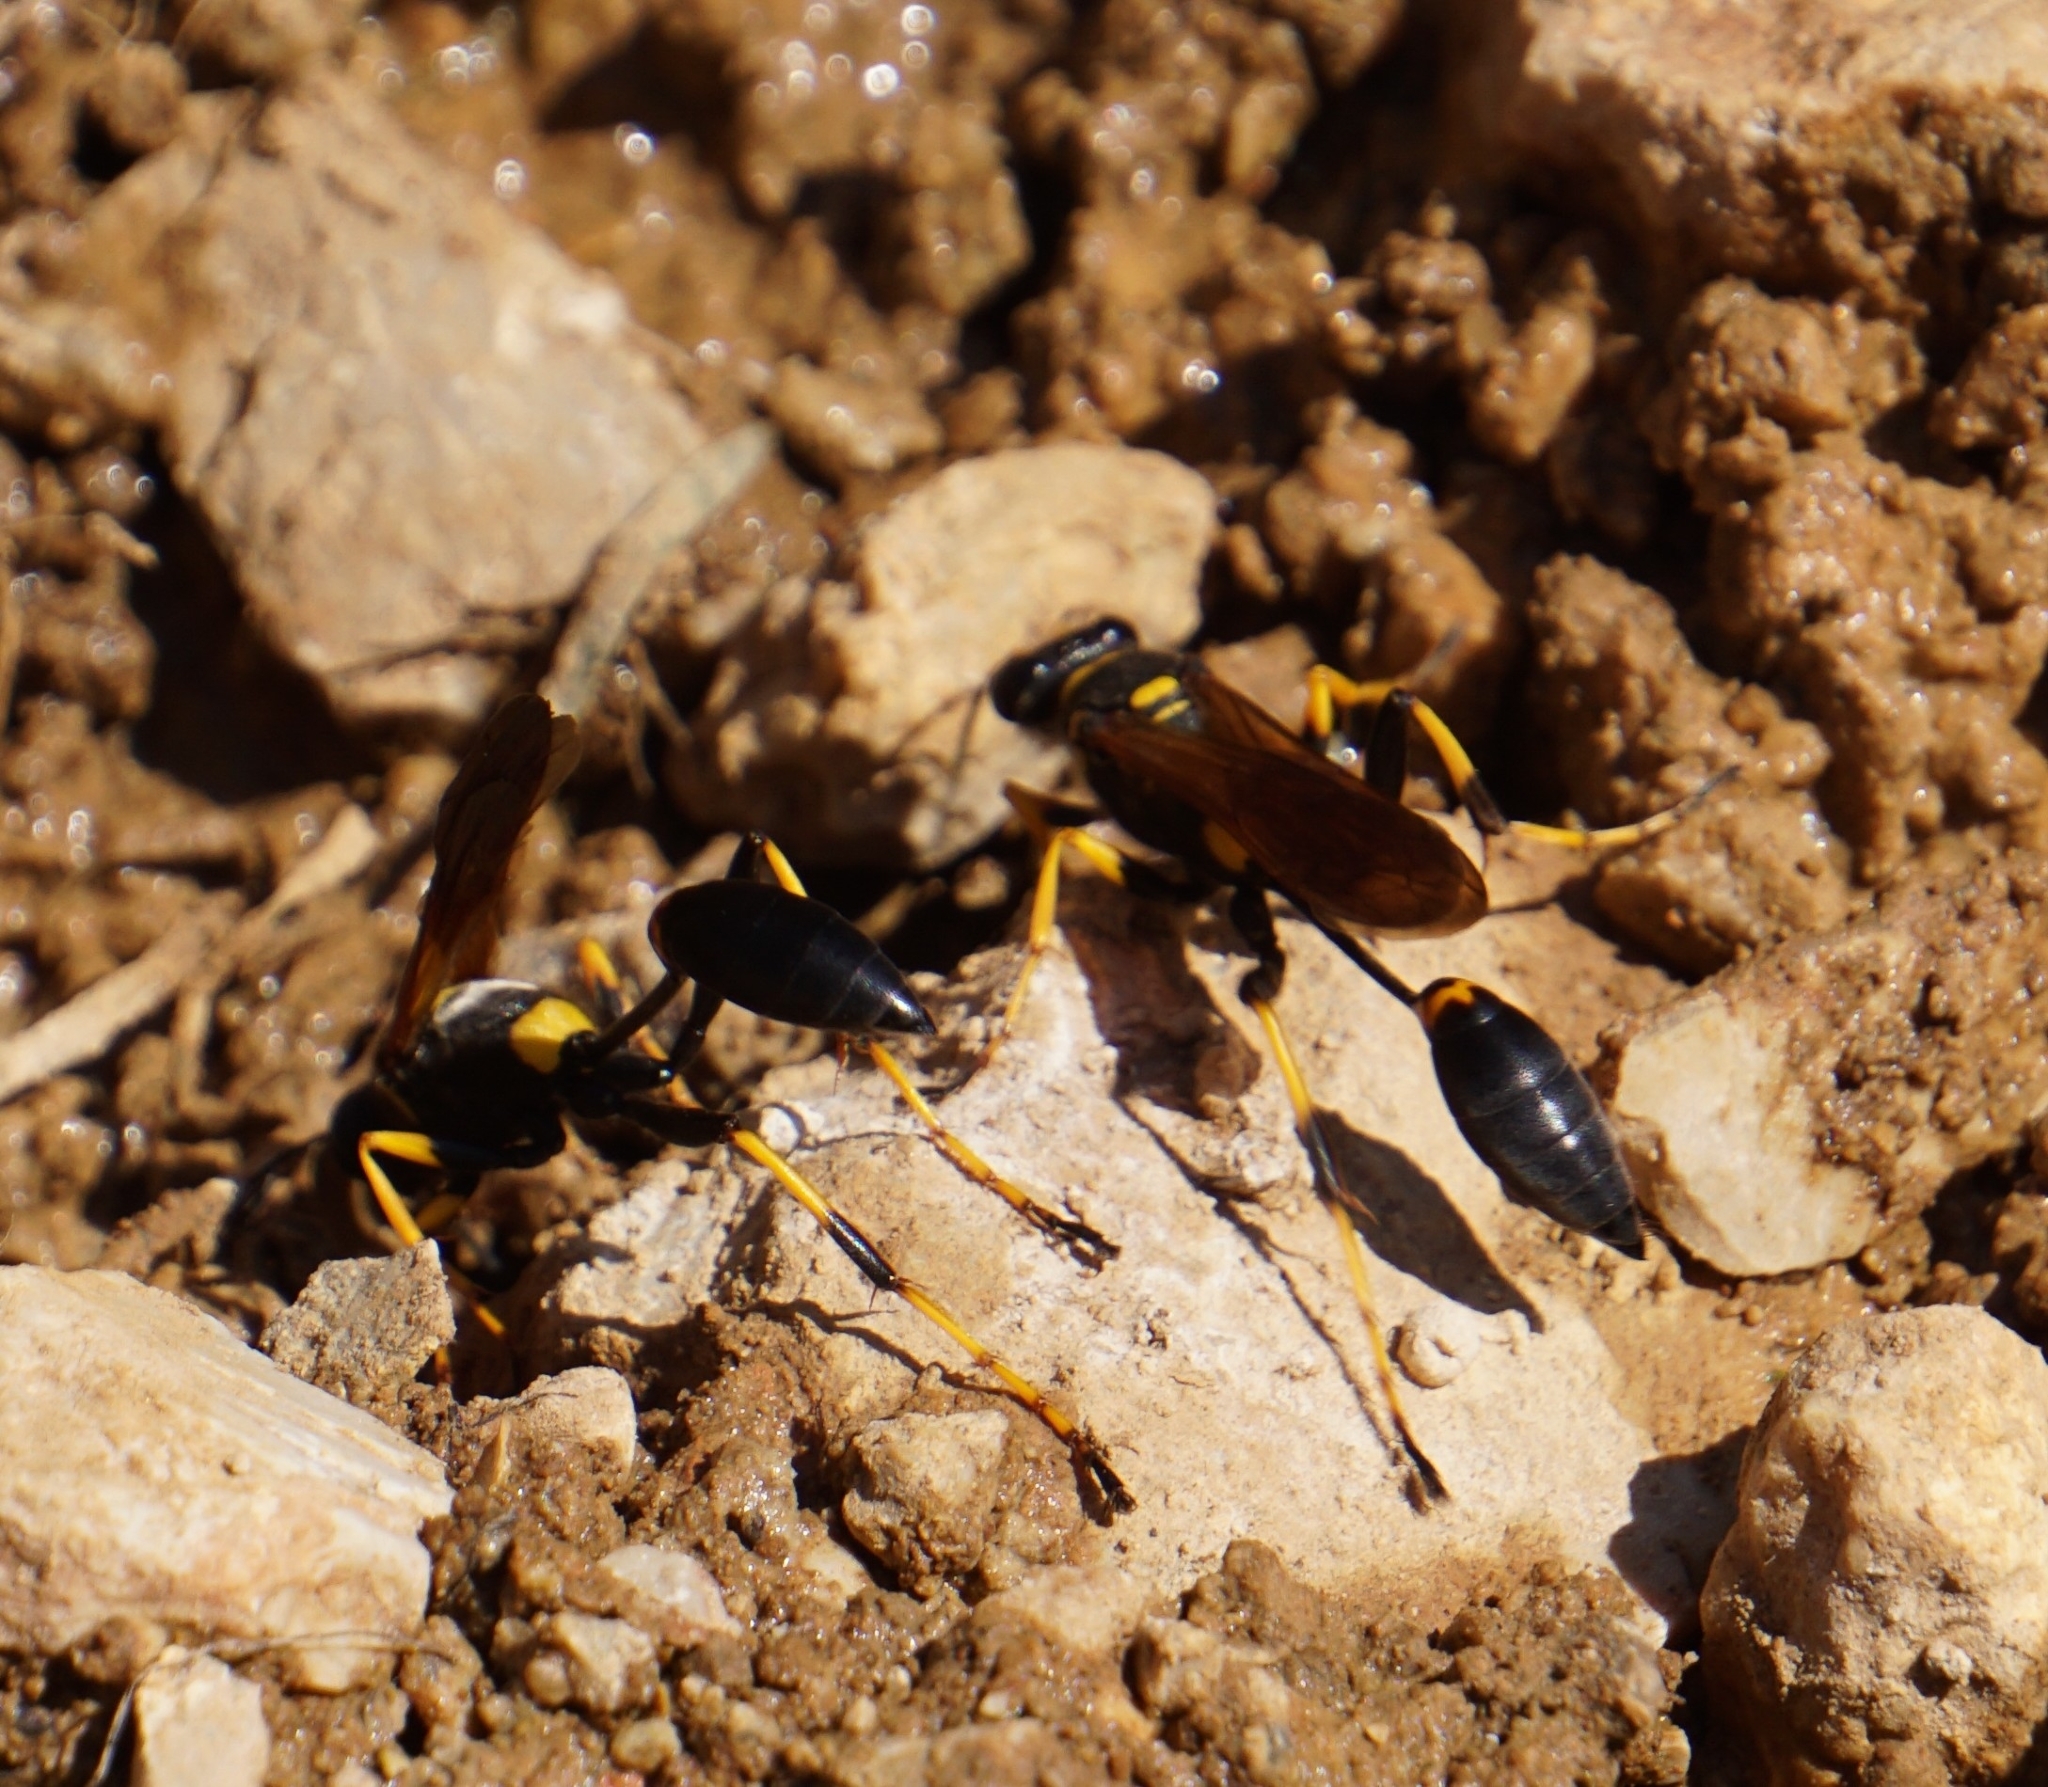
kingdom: Animalia
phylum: Arthropoda
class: Insecta
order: Hymenoptera
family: Sphecidae
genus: Sceliphron
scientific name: Sceliphron caementarium
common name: Mud dauber
